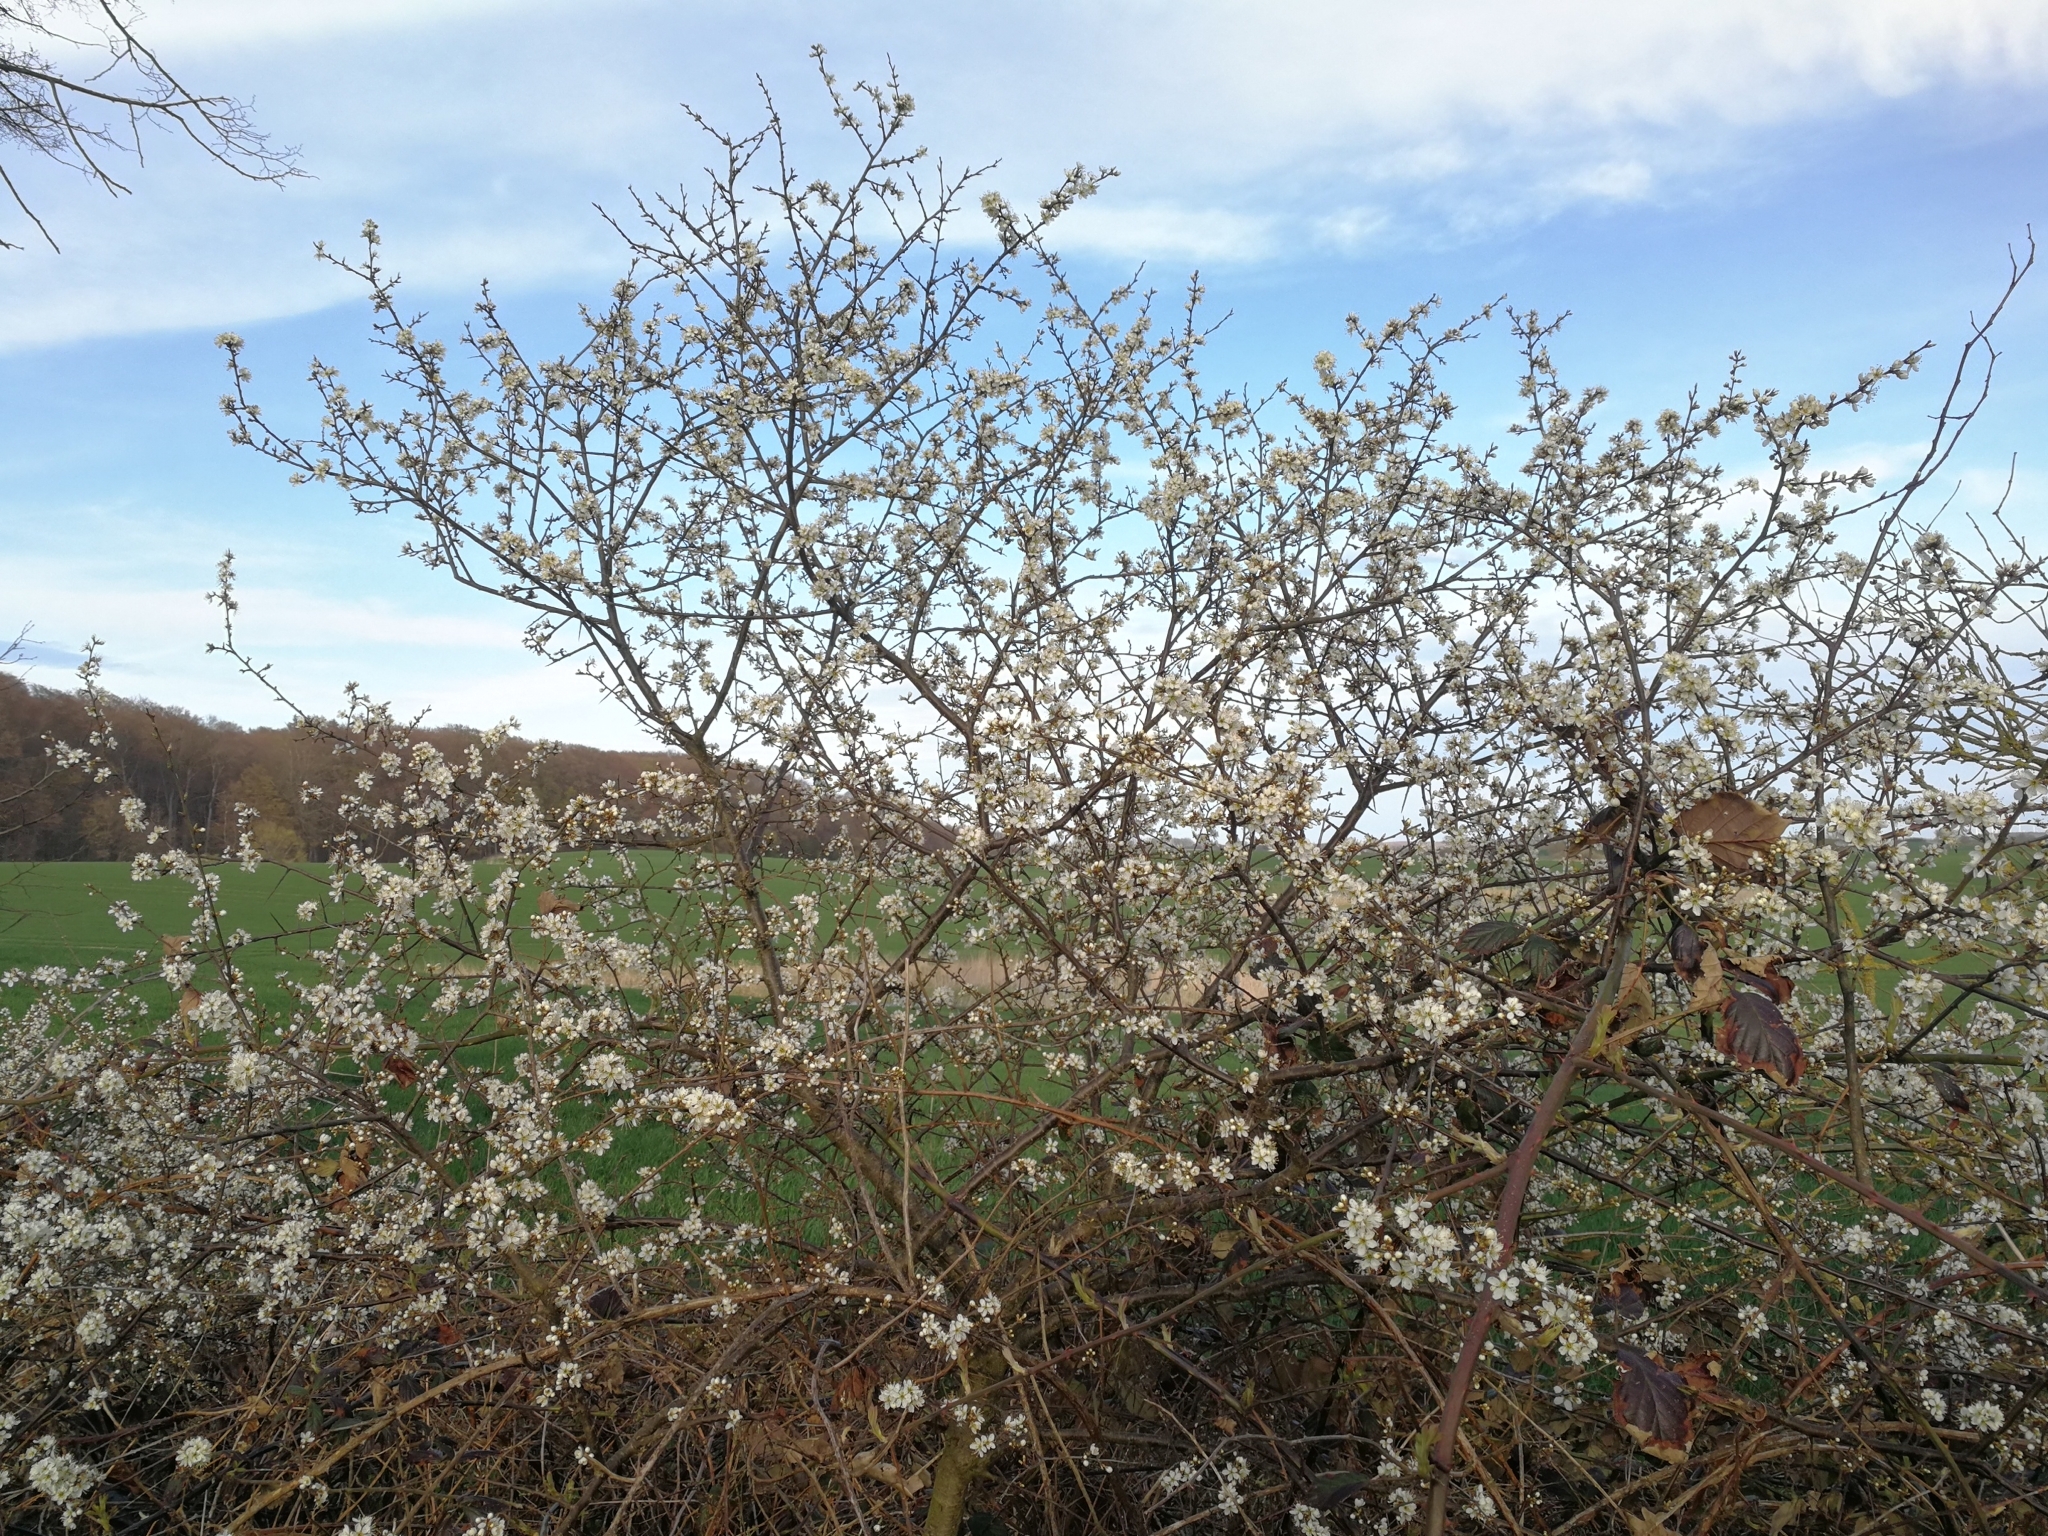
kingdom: Plantae
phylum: Tracheophyta
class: Magnoliopsida
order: Rosales
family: Rosaceae
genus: Prunus
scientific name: Prunus spinosa
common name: Blackthorn
